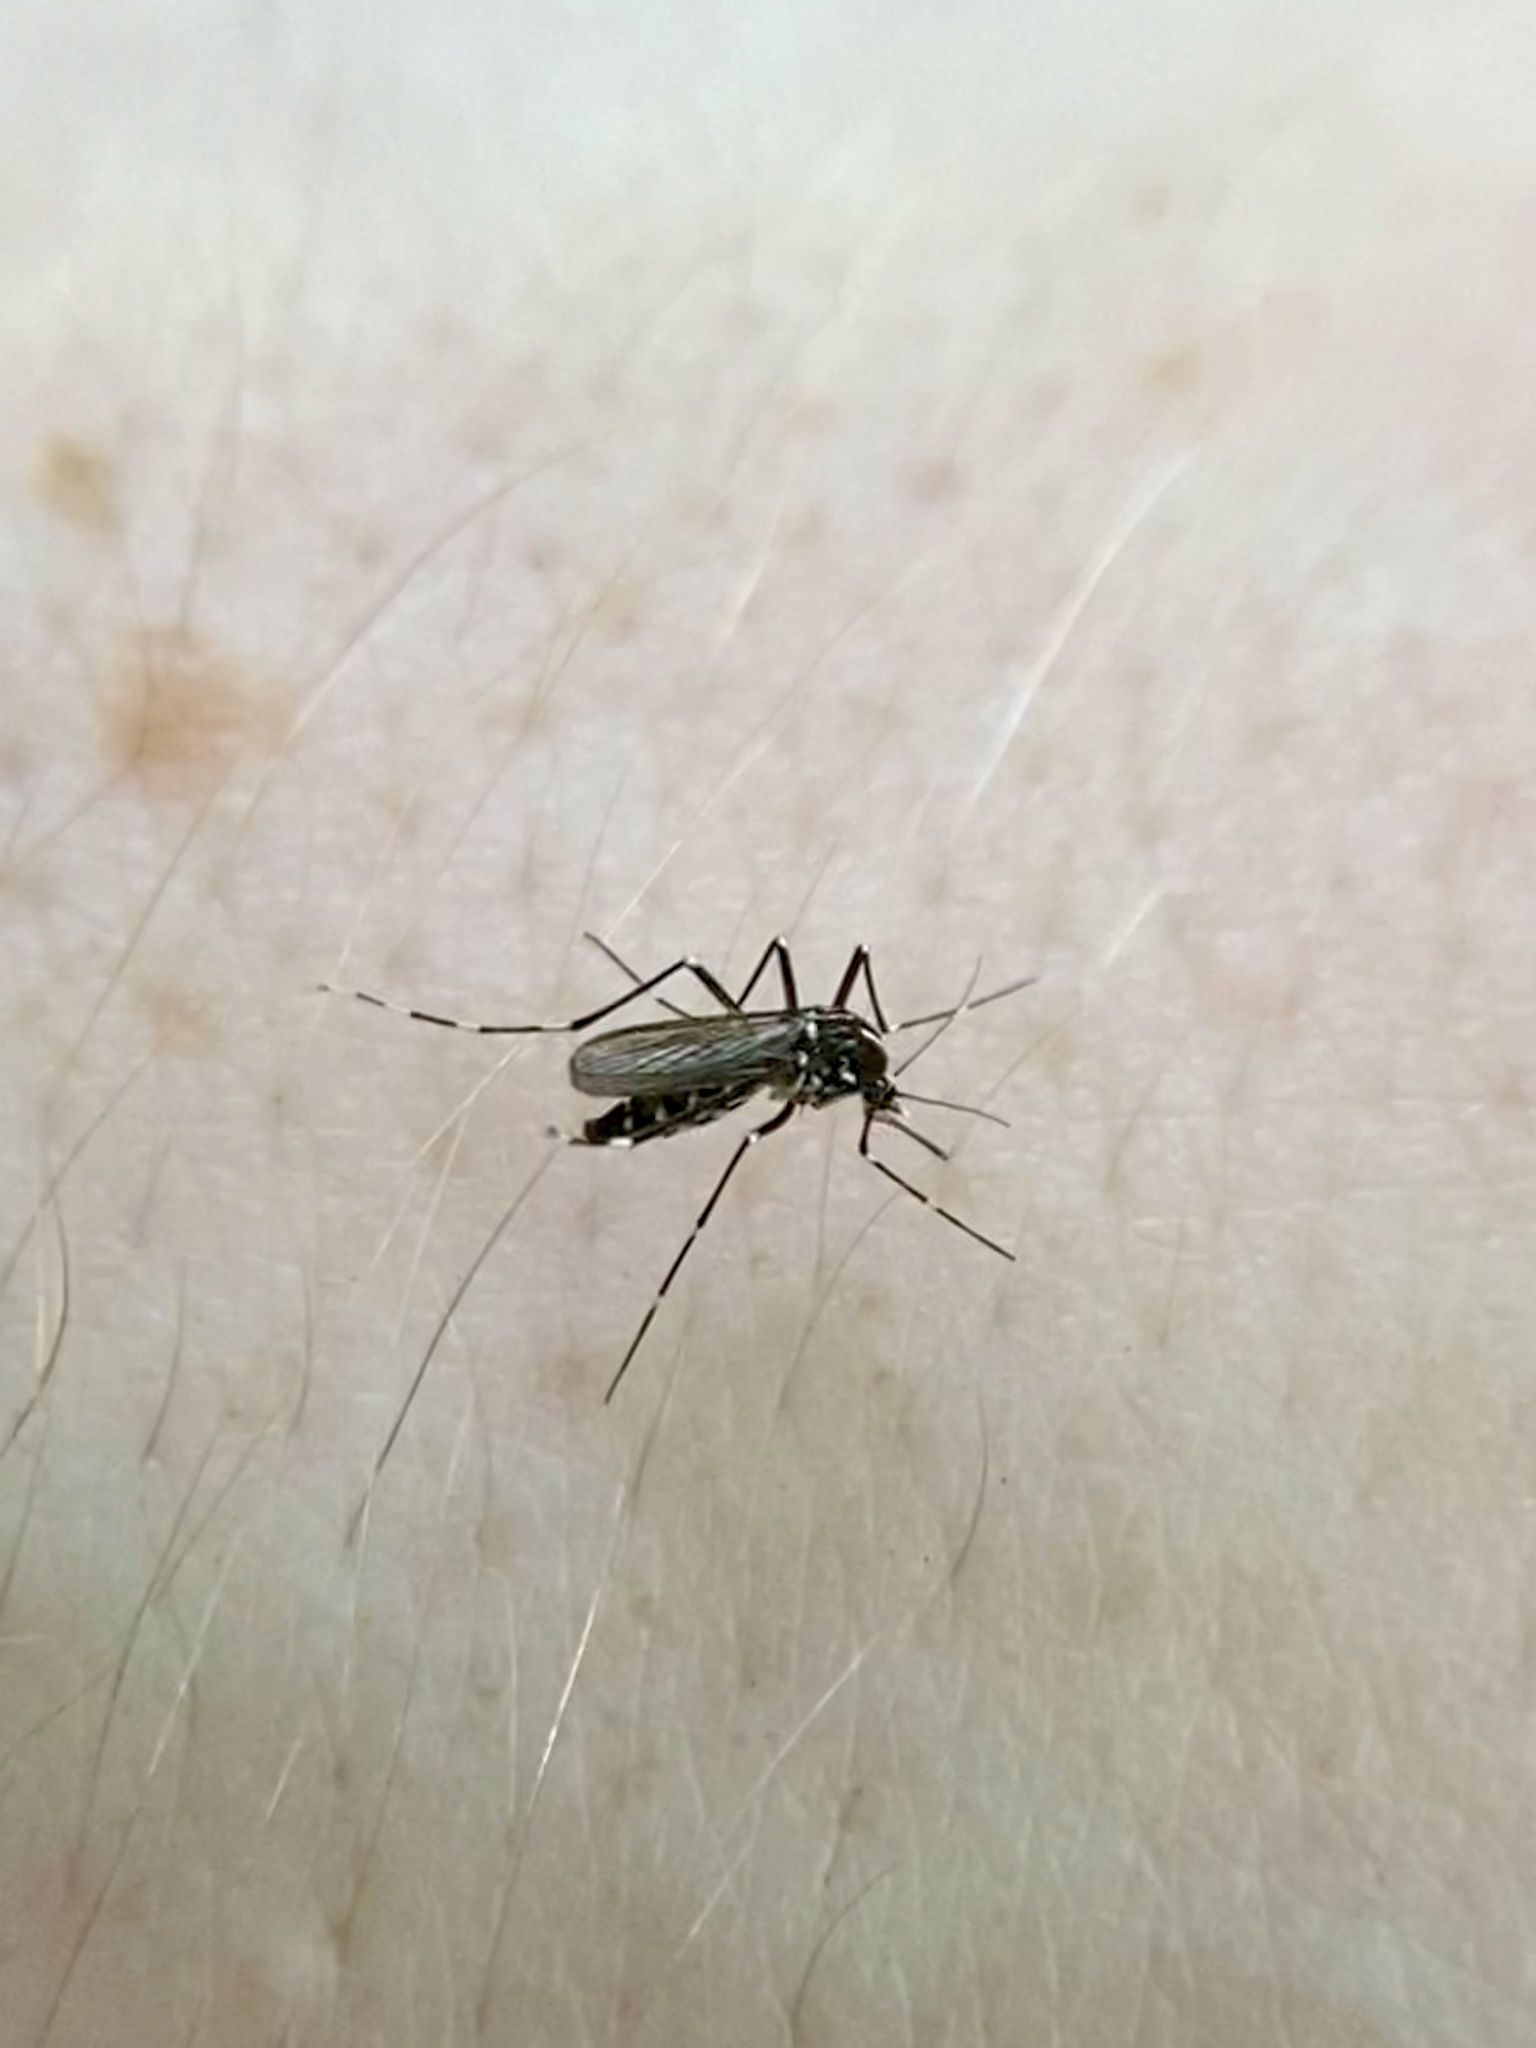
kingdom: Animalia
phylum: Arthropoda
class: Insecta
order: Diptera
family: Culicidae
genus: Aedes
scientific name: Aedes albopictus
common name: Tiger mosquito
